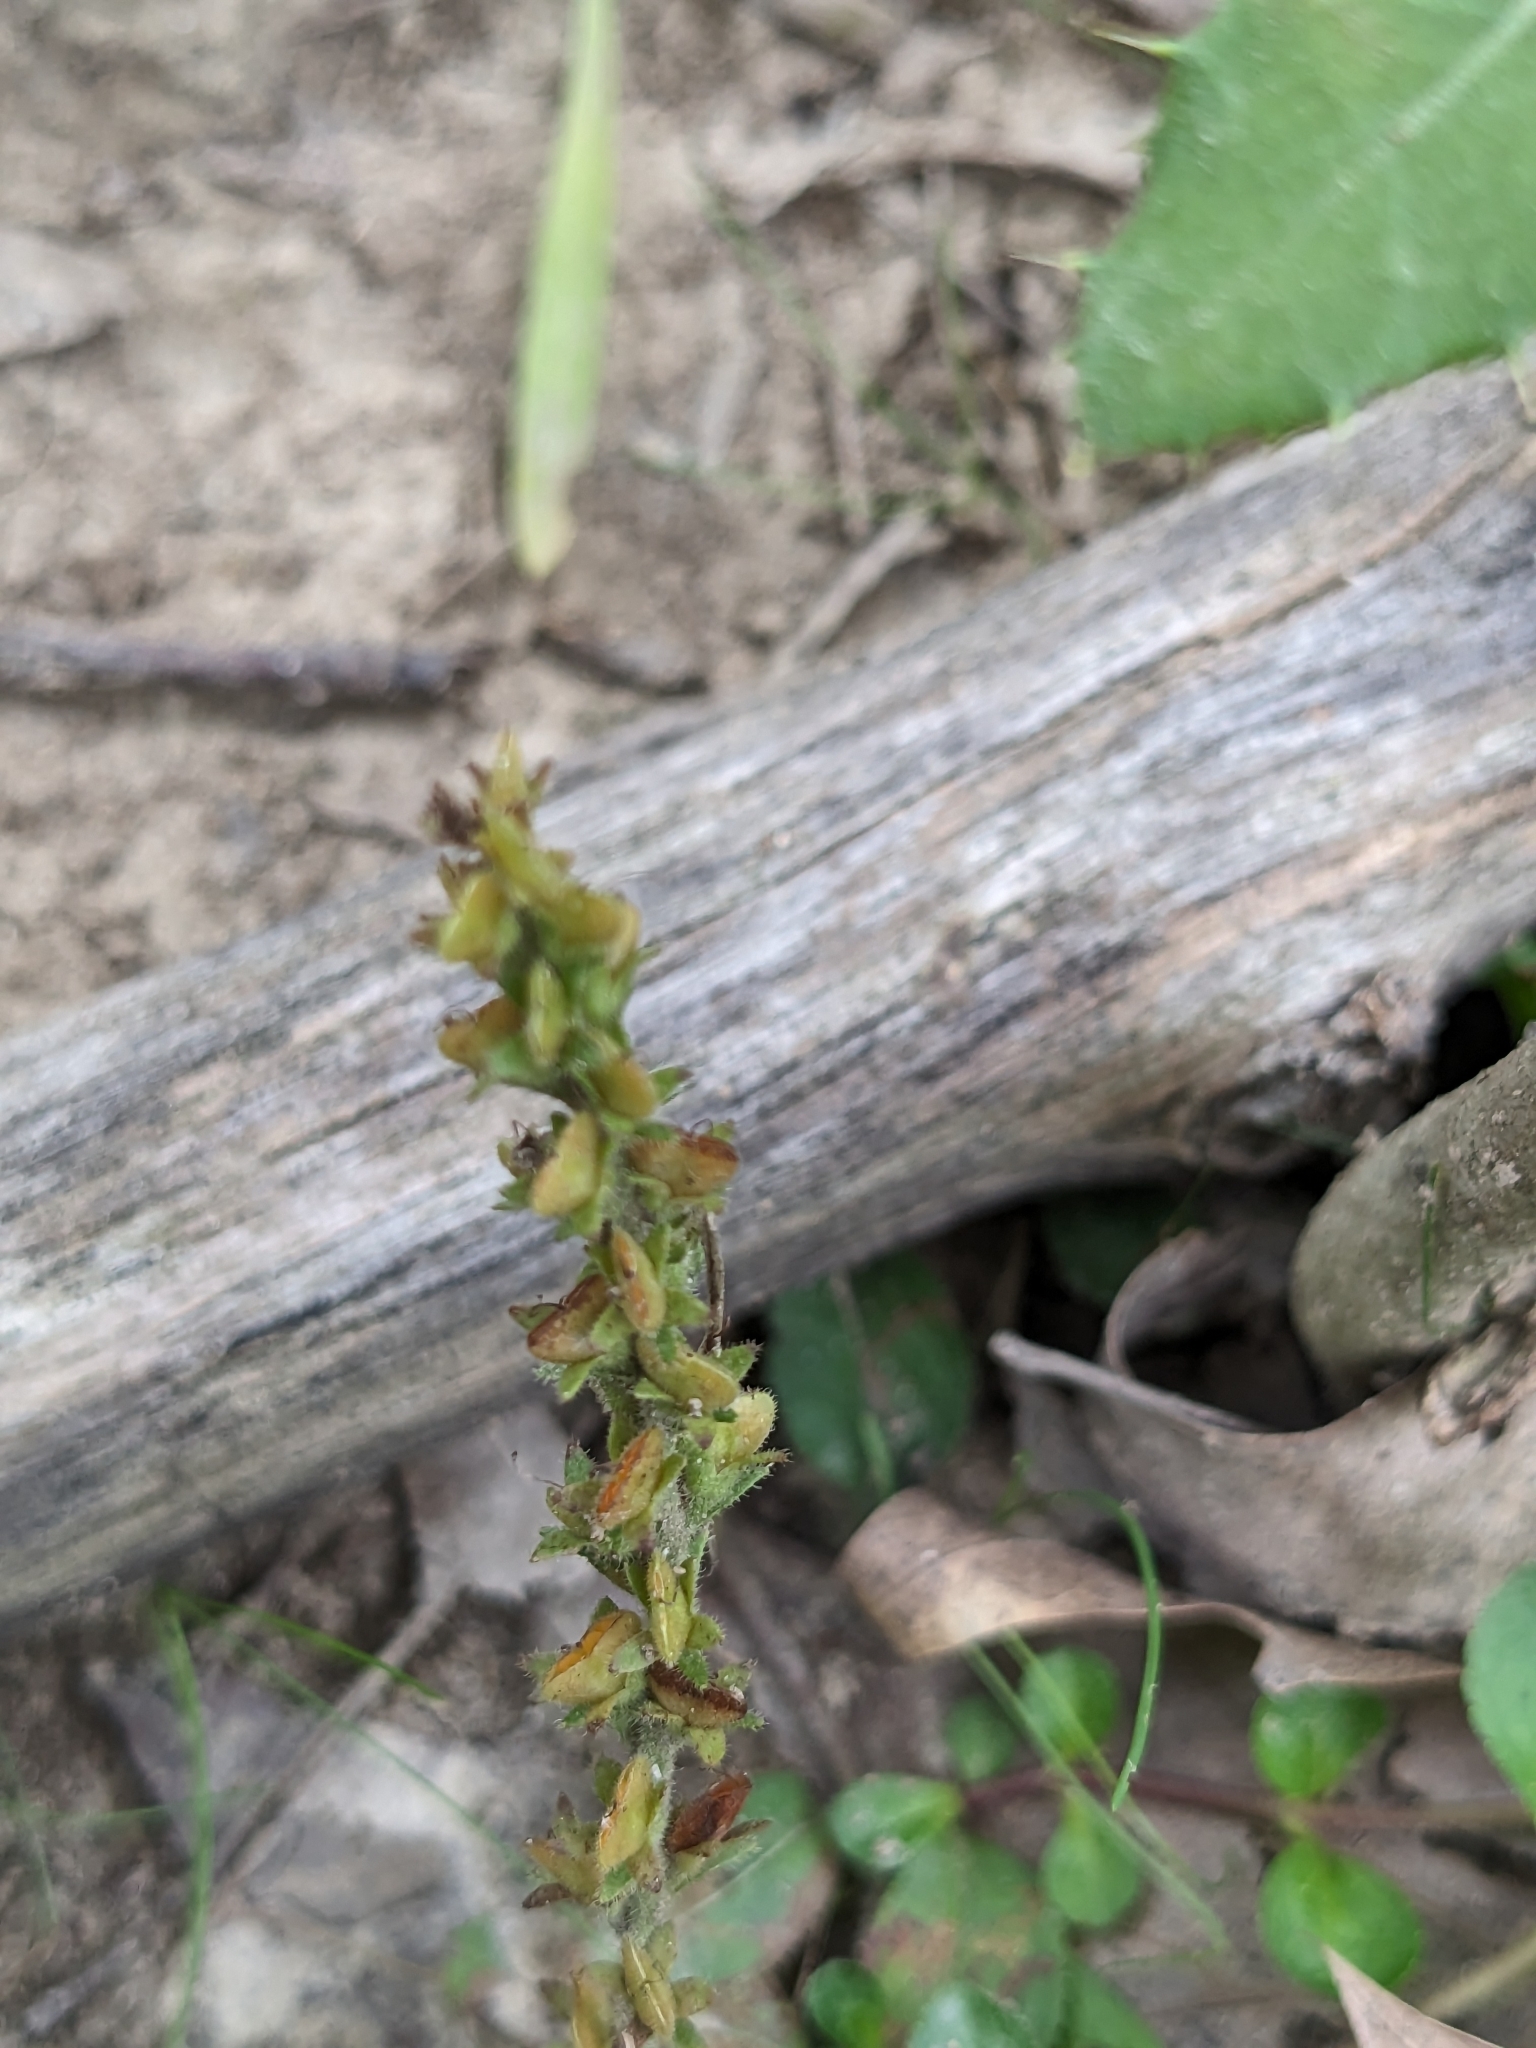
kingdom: Plantae
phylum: Tracheophyta
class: Magnoliopsida
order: Lamiales
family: Plantaginaceae
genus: Veronica
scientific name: Veronica officinalis
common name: Common speedwell
